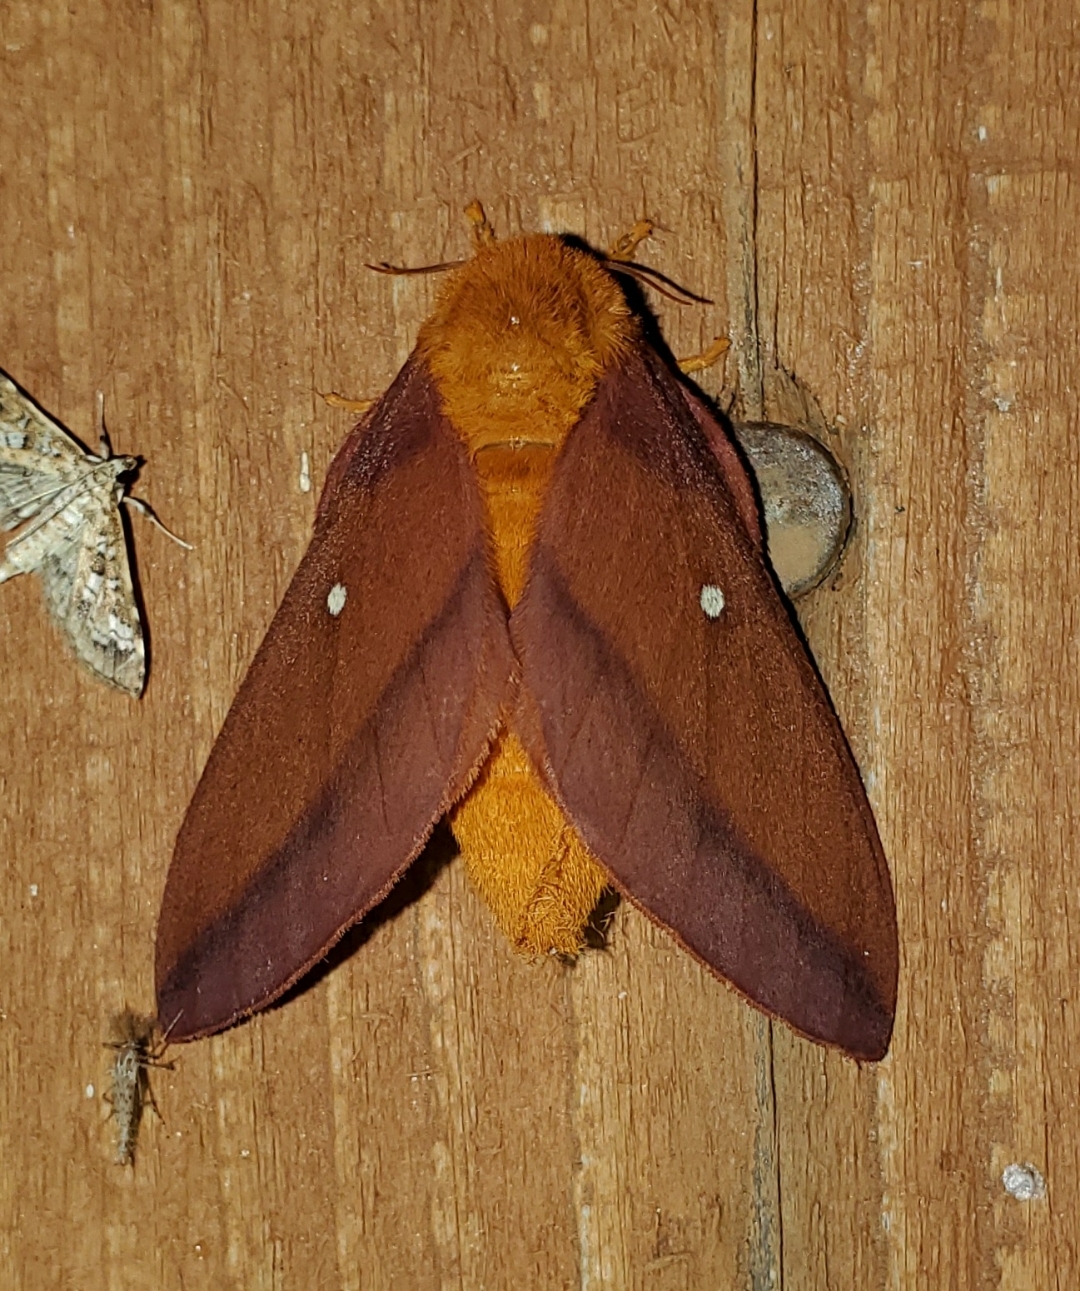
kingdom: Animalia
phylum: Arthropoda
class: Insecta
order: Lepidoptera
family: Saturniidae
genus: Anisota
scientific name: Anisota virginiensis
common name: Pink striped oakworm moth
